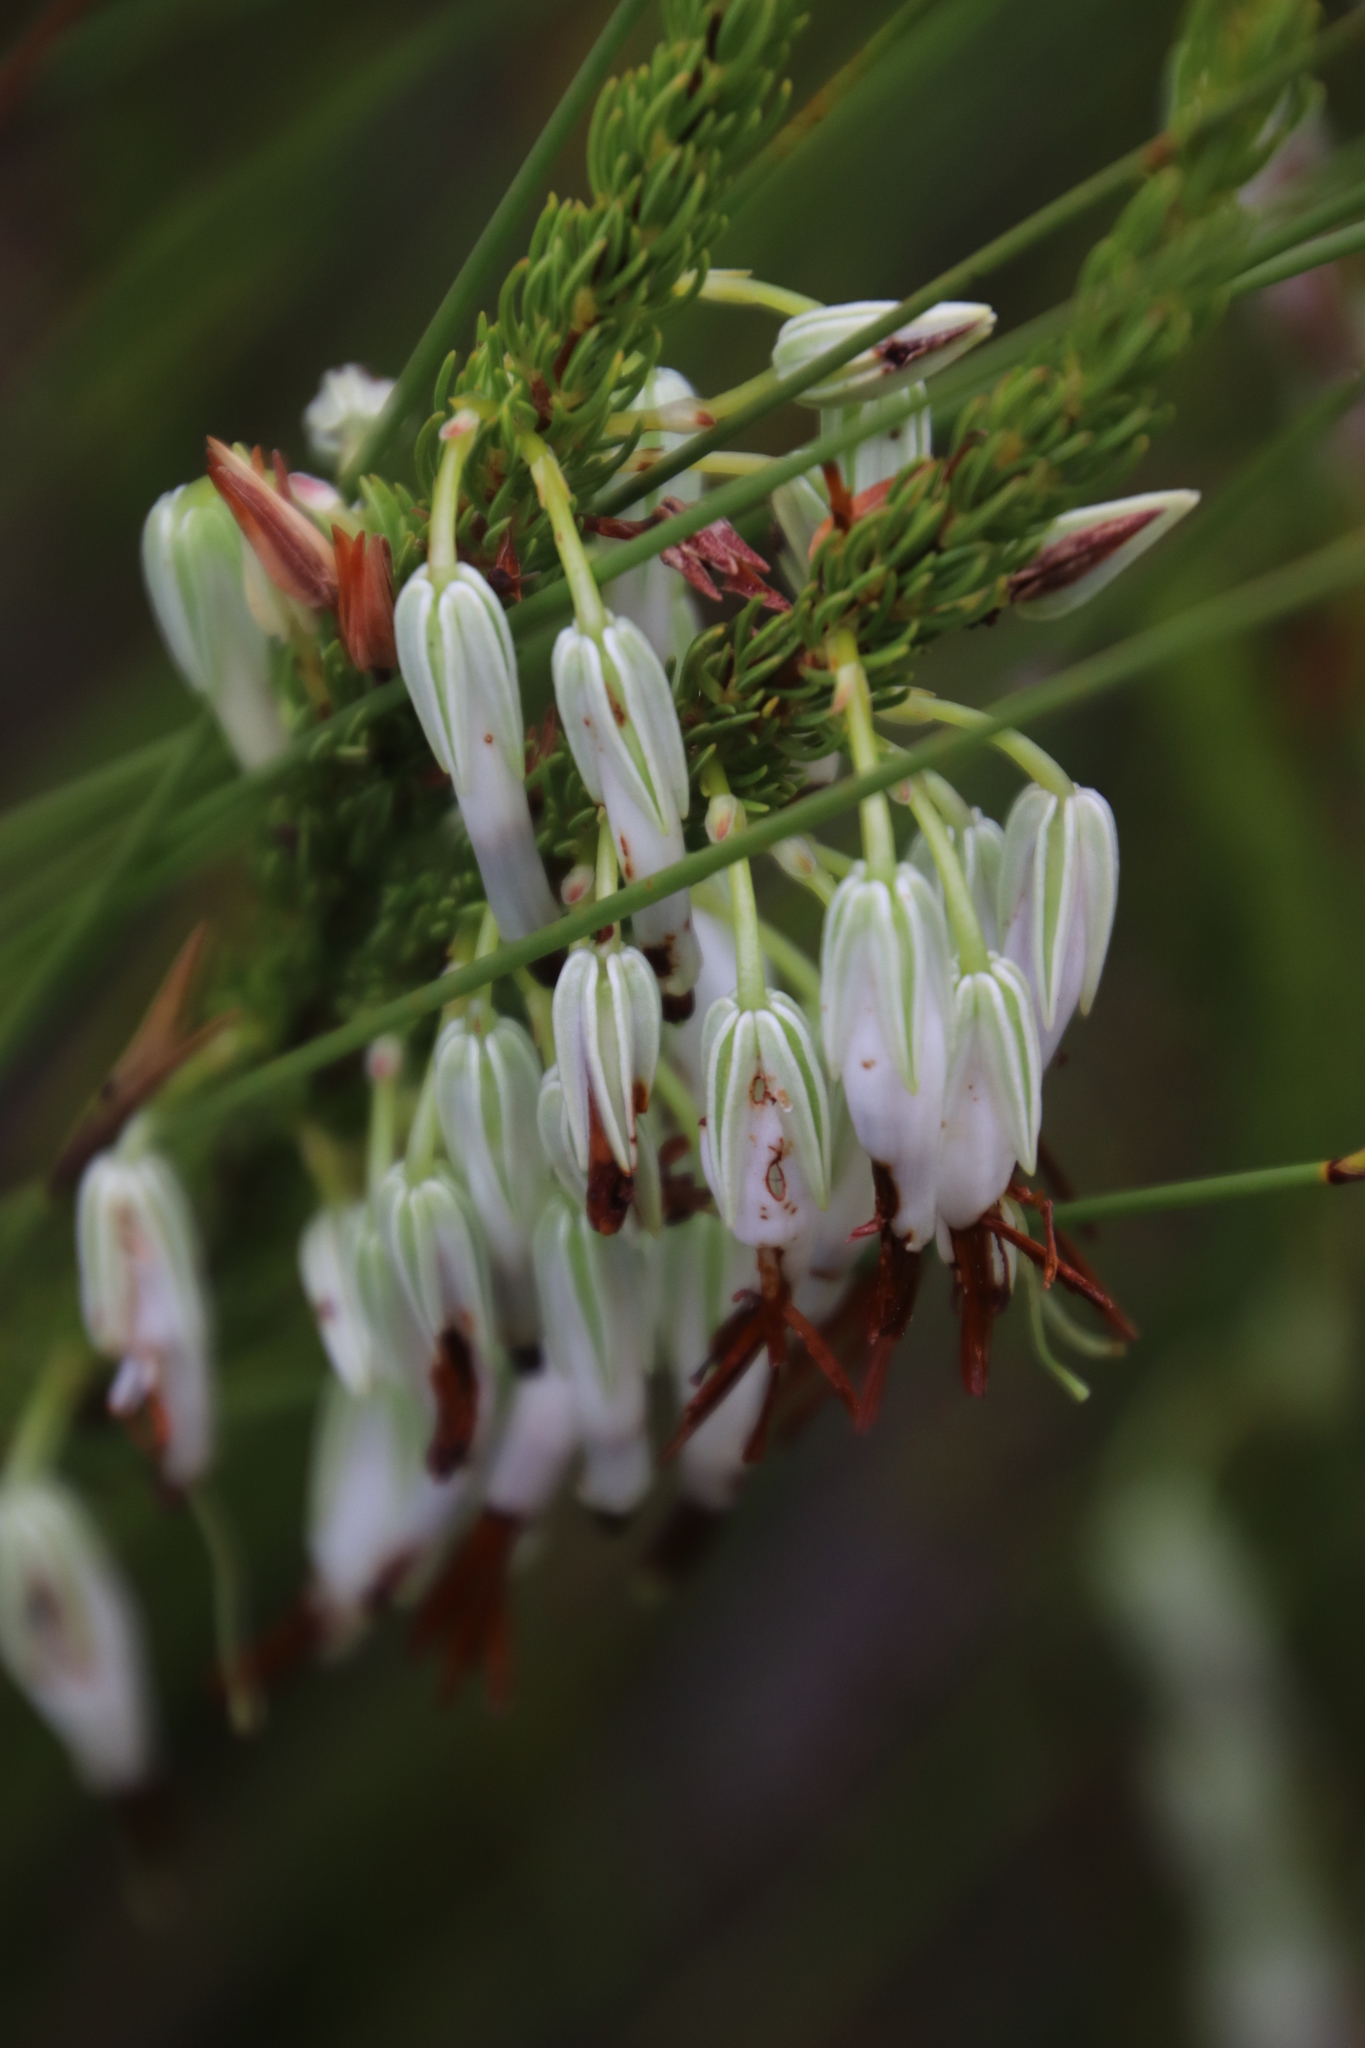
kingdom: Plantae
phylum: Tracheophyta
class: Magnoliopsida
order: Ericales
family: Ericaceae
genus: Erica
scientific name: Erica plukenetii
